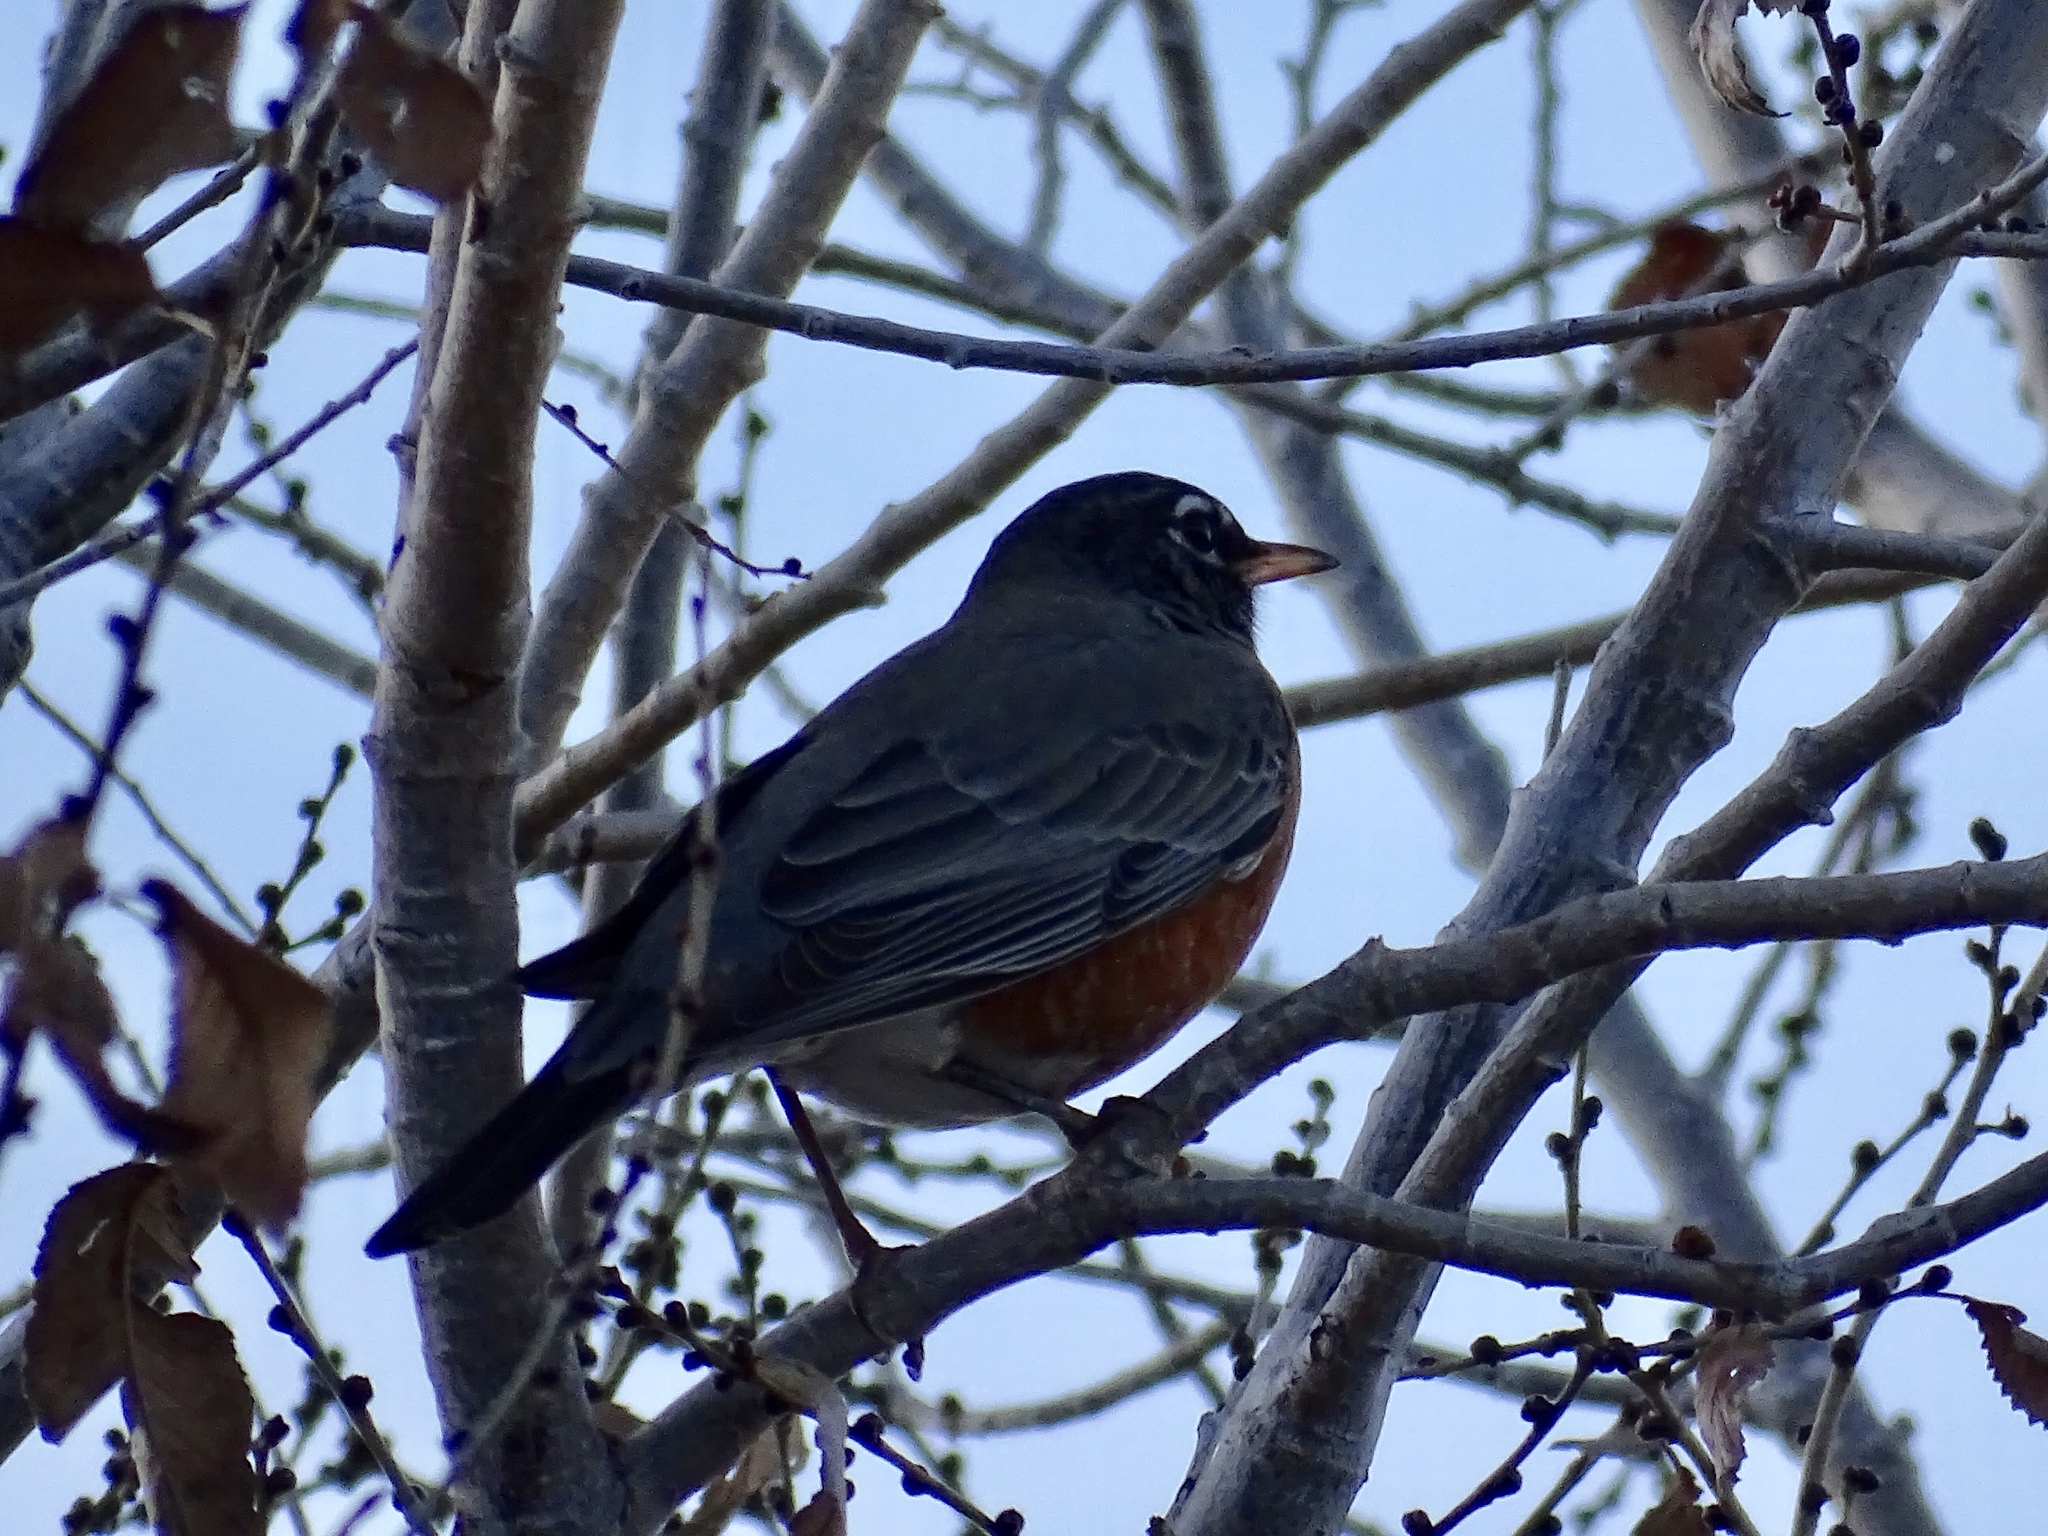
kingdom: Animalia
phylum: Chordata
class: Aves
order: Passeriformes
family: Turdidae
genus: Turdus
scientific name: Turdus migratorius
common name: American robin
